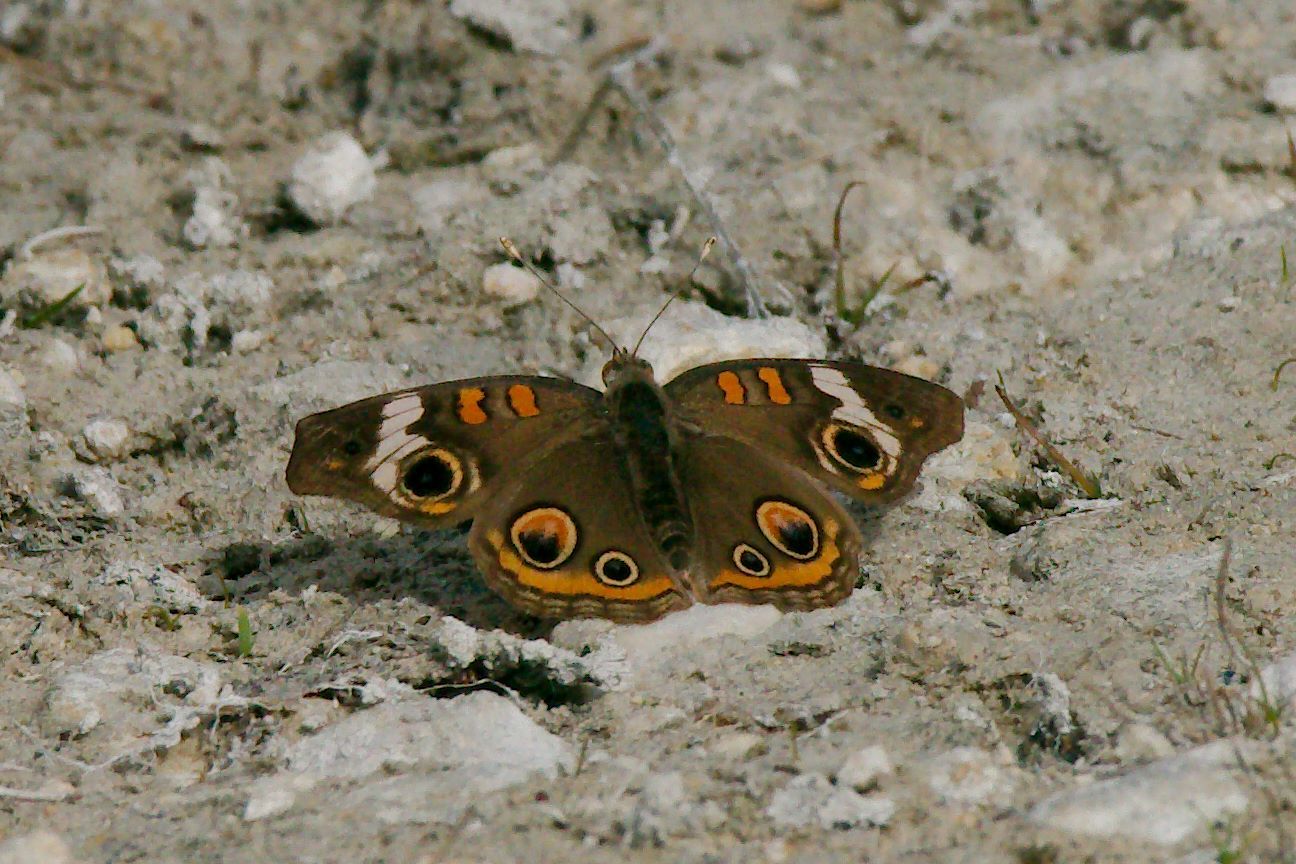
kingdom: Animalia
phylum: Arthropoda
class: Insecta
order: Lepidoptera
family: Nymphalidae
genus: Junonia
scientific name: Junonia coenia
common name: Common buckeye
